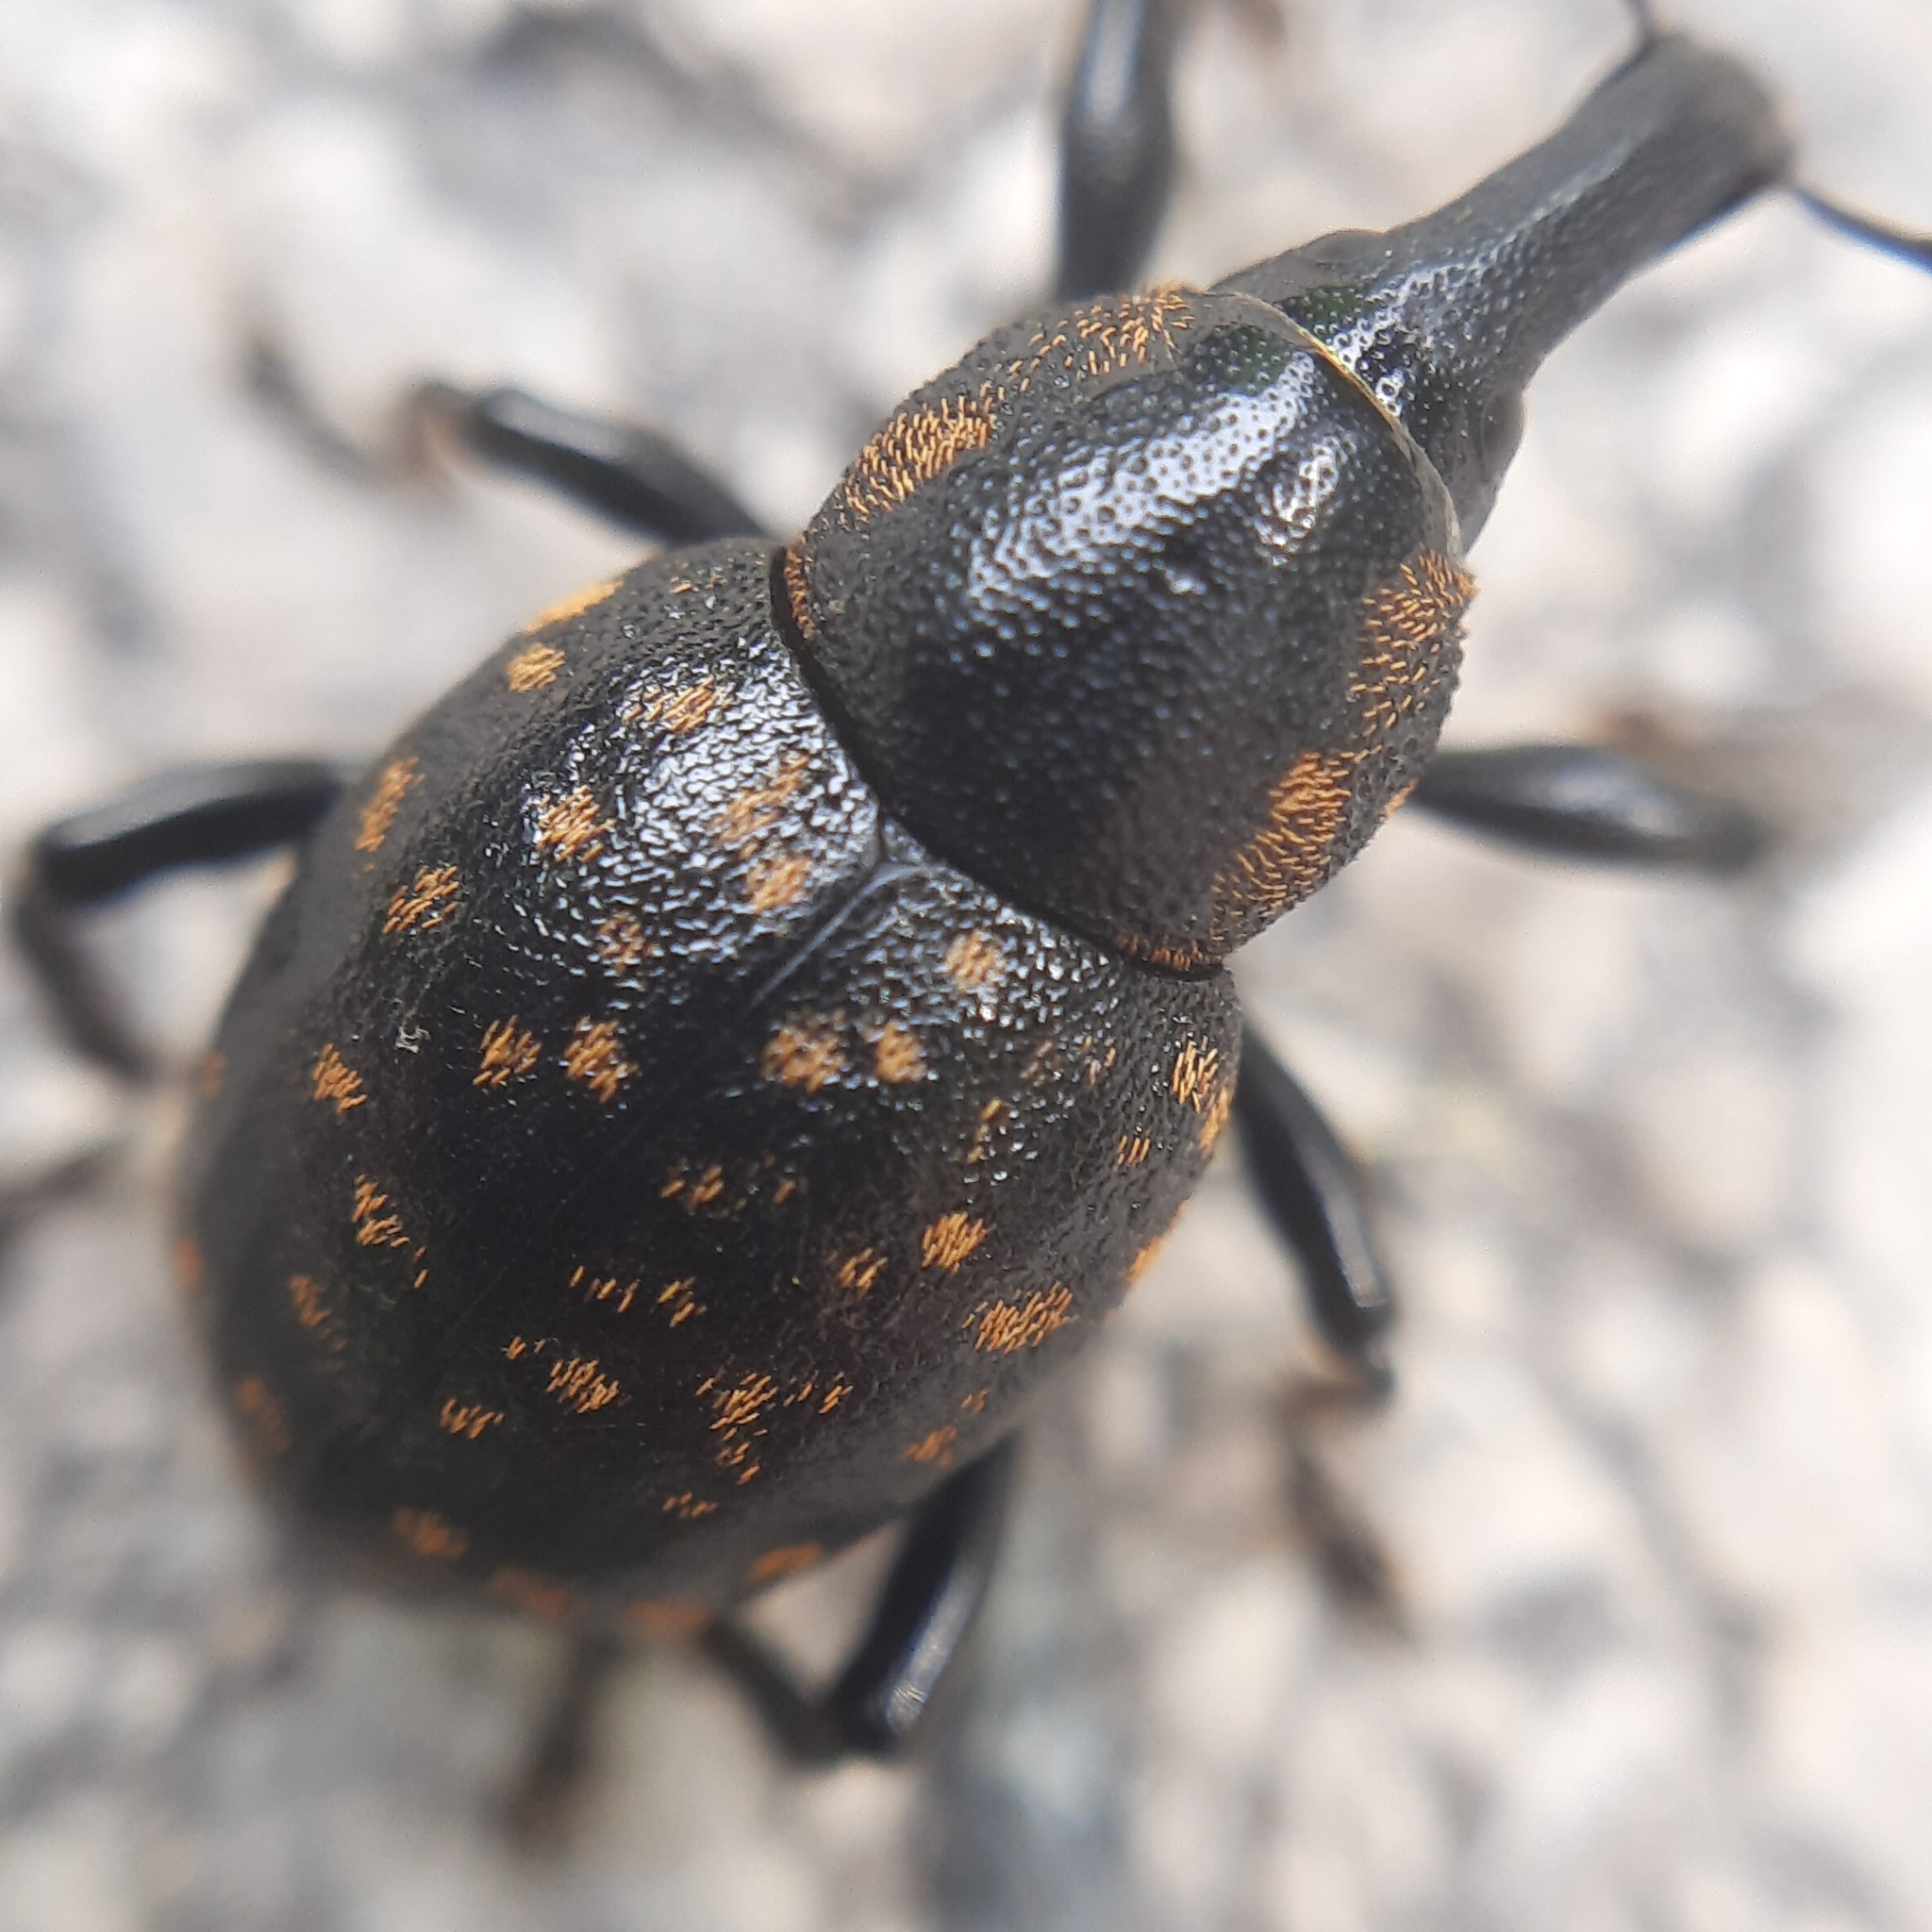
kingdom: Animalia
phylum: Arthropoda
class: Insecta
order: Coleoptera
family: Curculionidae
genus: Liparus
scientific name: Liparus germanus
